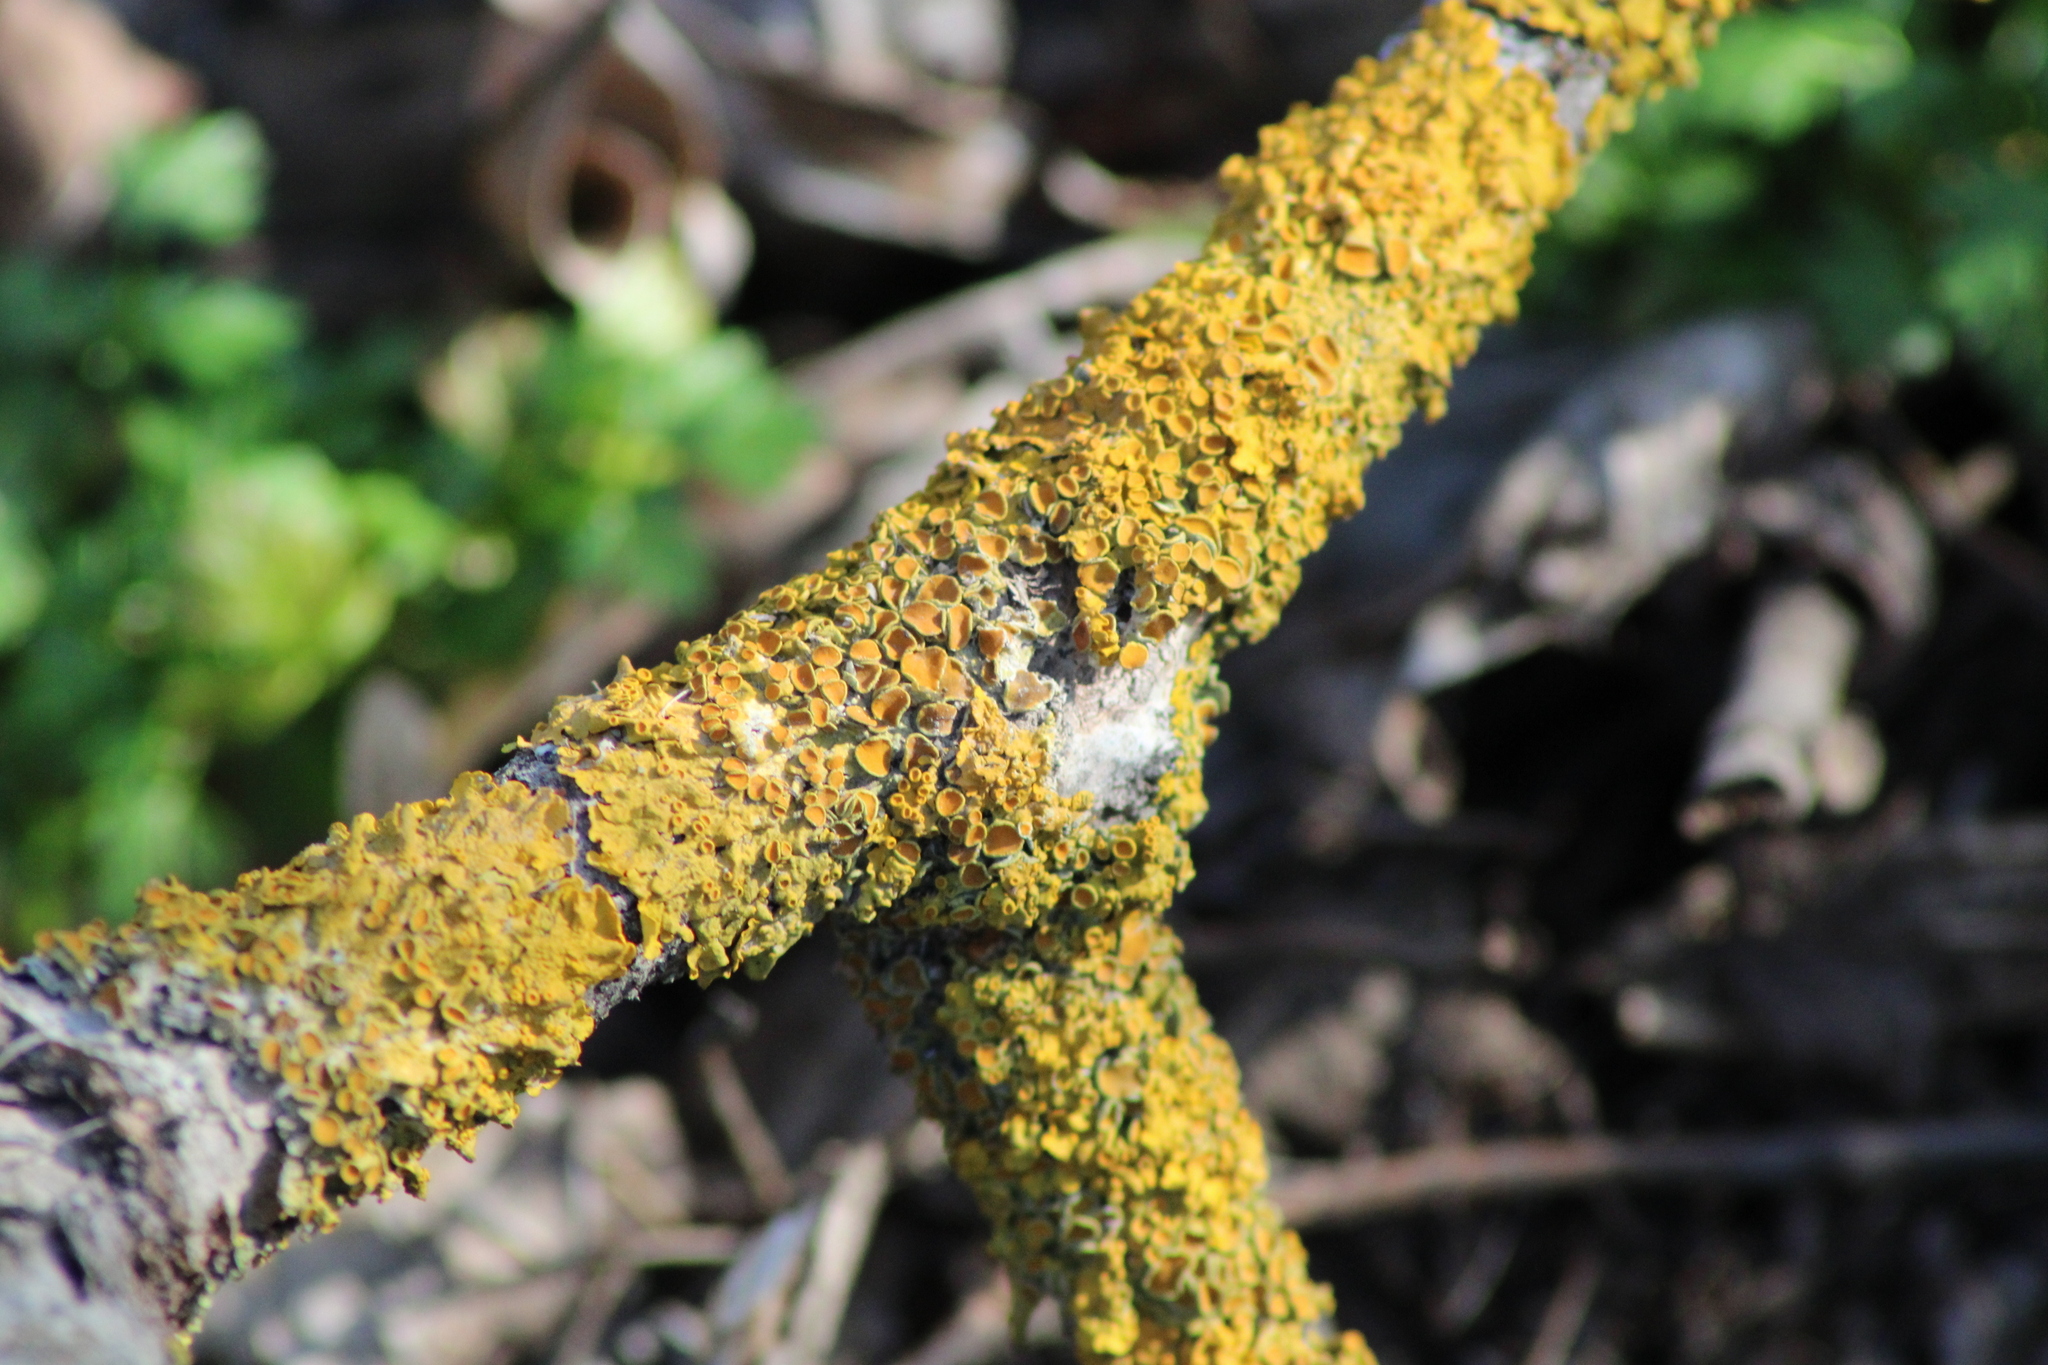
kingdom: Fungi
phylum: Ascomycota
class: Lecanoromycetes
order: Teloschistales
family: Teloschistaceae
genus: Xanthoria
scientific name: Xanthoria parietina
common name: Common orange lichen
